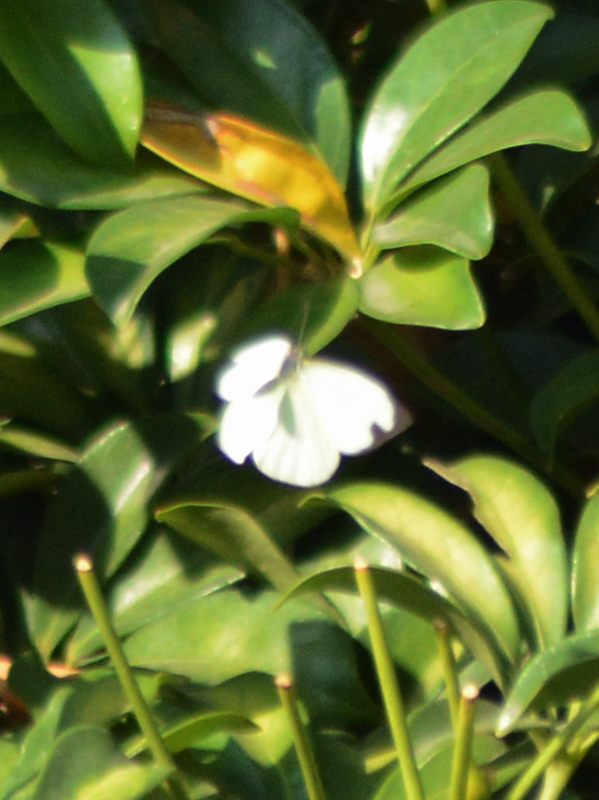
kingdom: Animalia
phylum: Arthropoda
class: Insecta
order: Lepidoptera
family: Pieridae
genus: Leptophobia
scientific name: Leptophobia aripa
